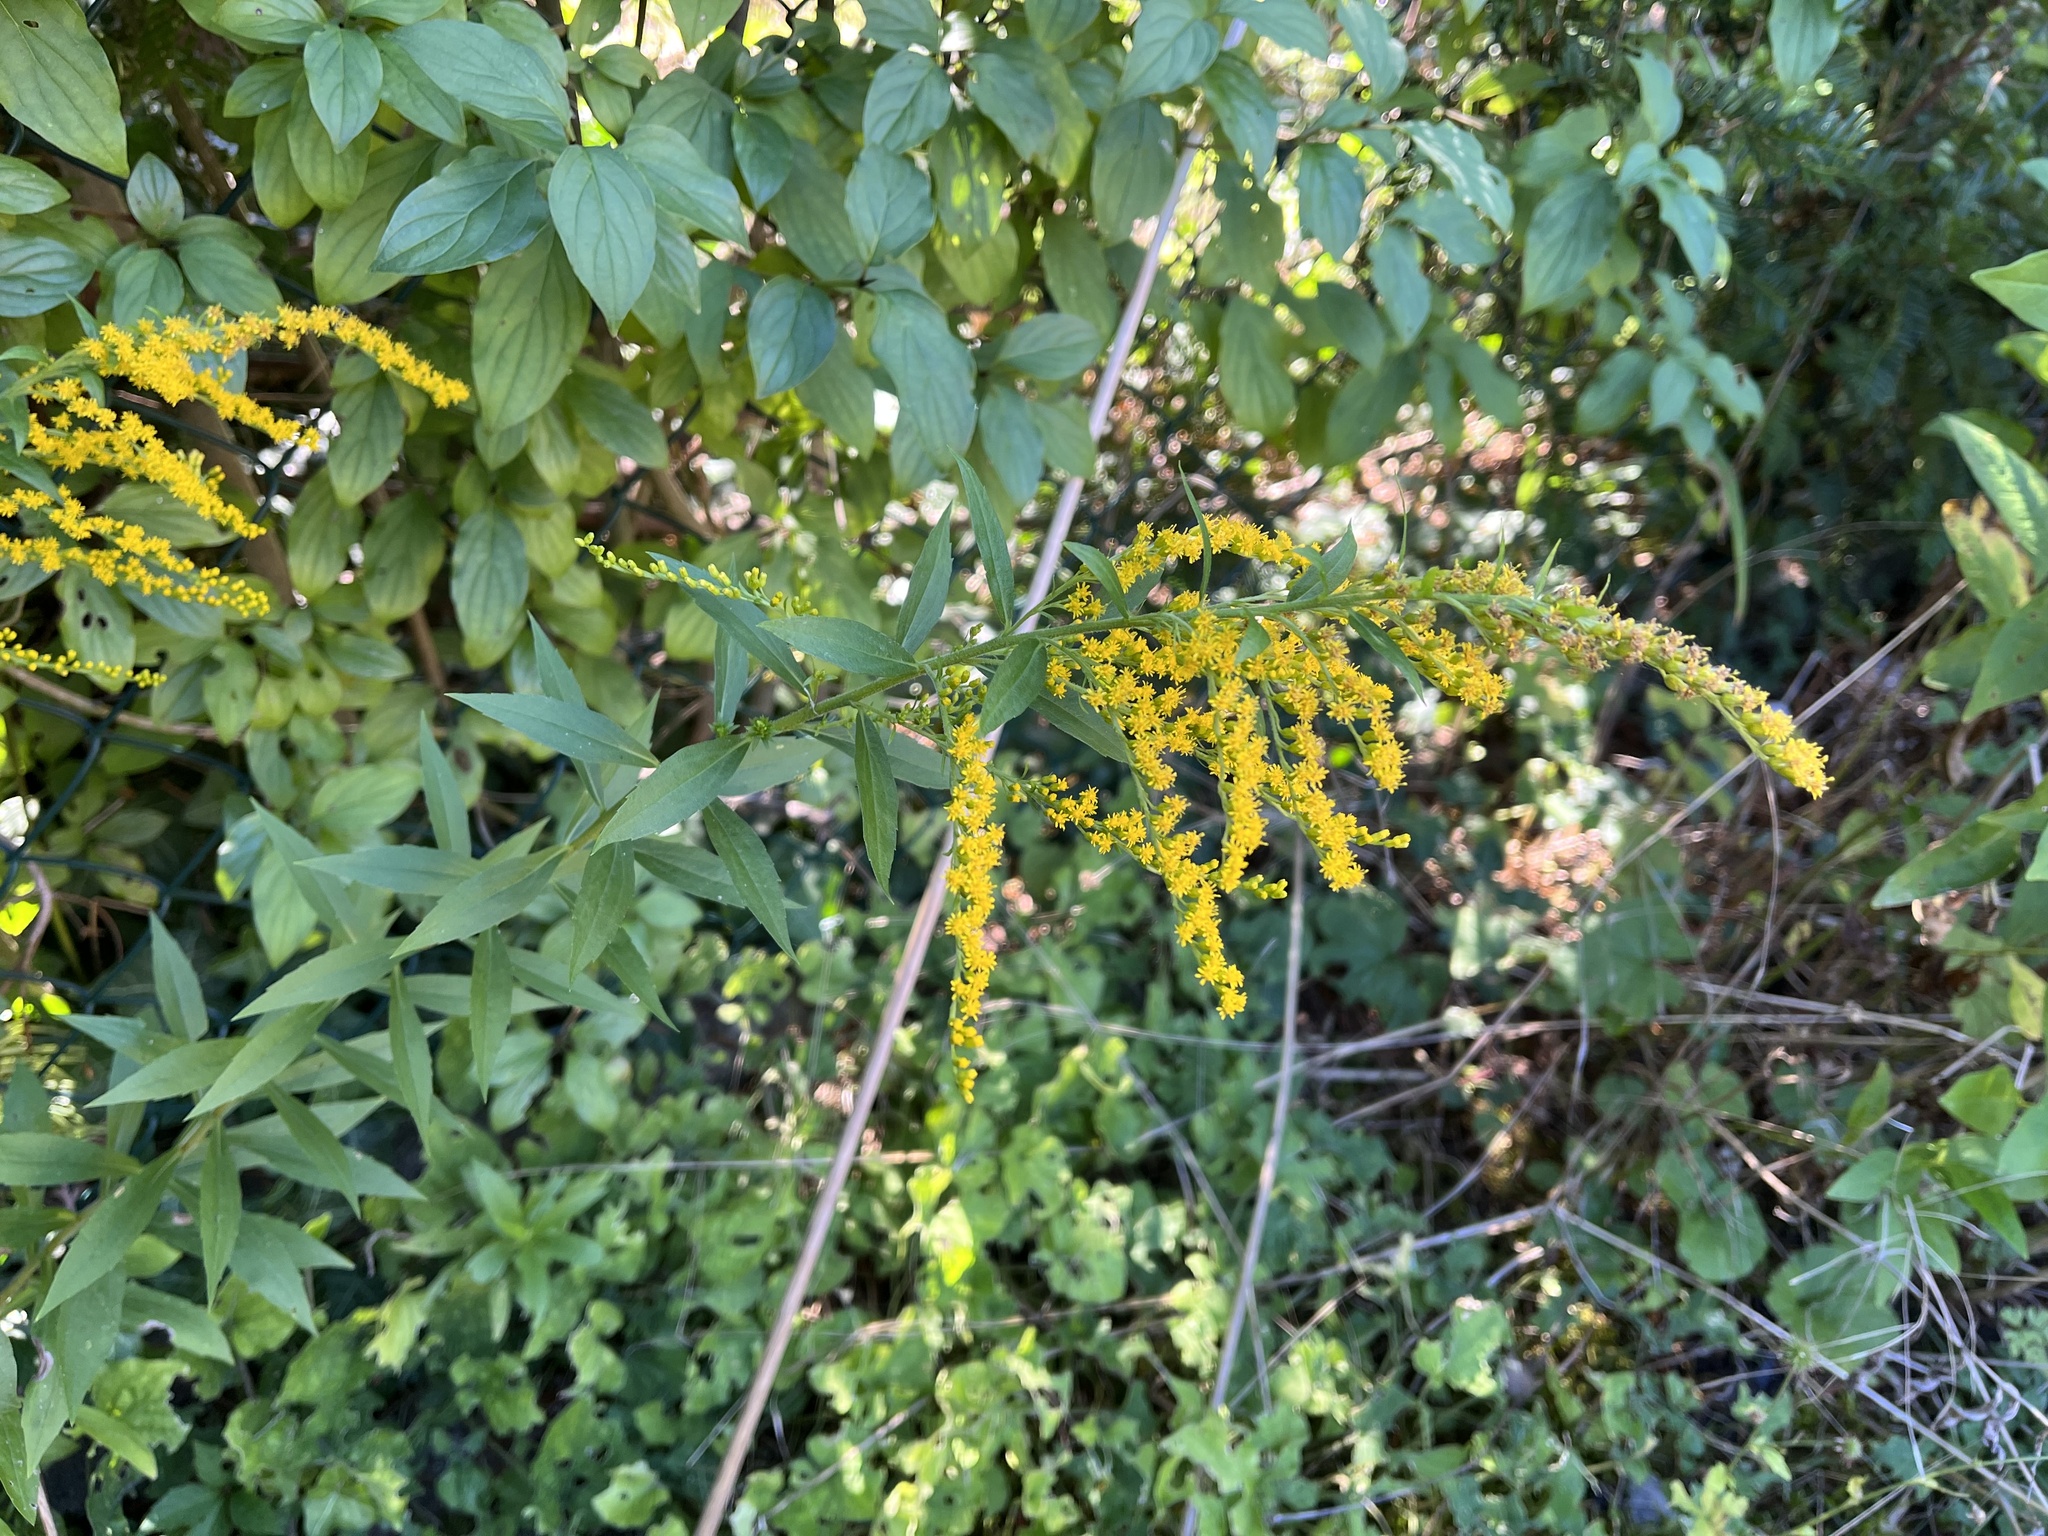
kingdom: Plantae
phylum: Tracheophyta
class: Magnoliopsida
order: Asterales
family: Asteraceae
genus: Solidago
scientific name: Solidago canadensis
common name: Canada goldenrod
